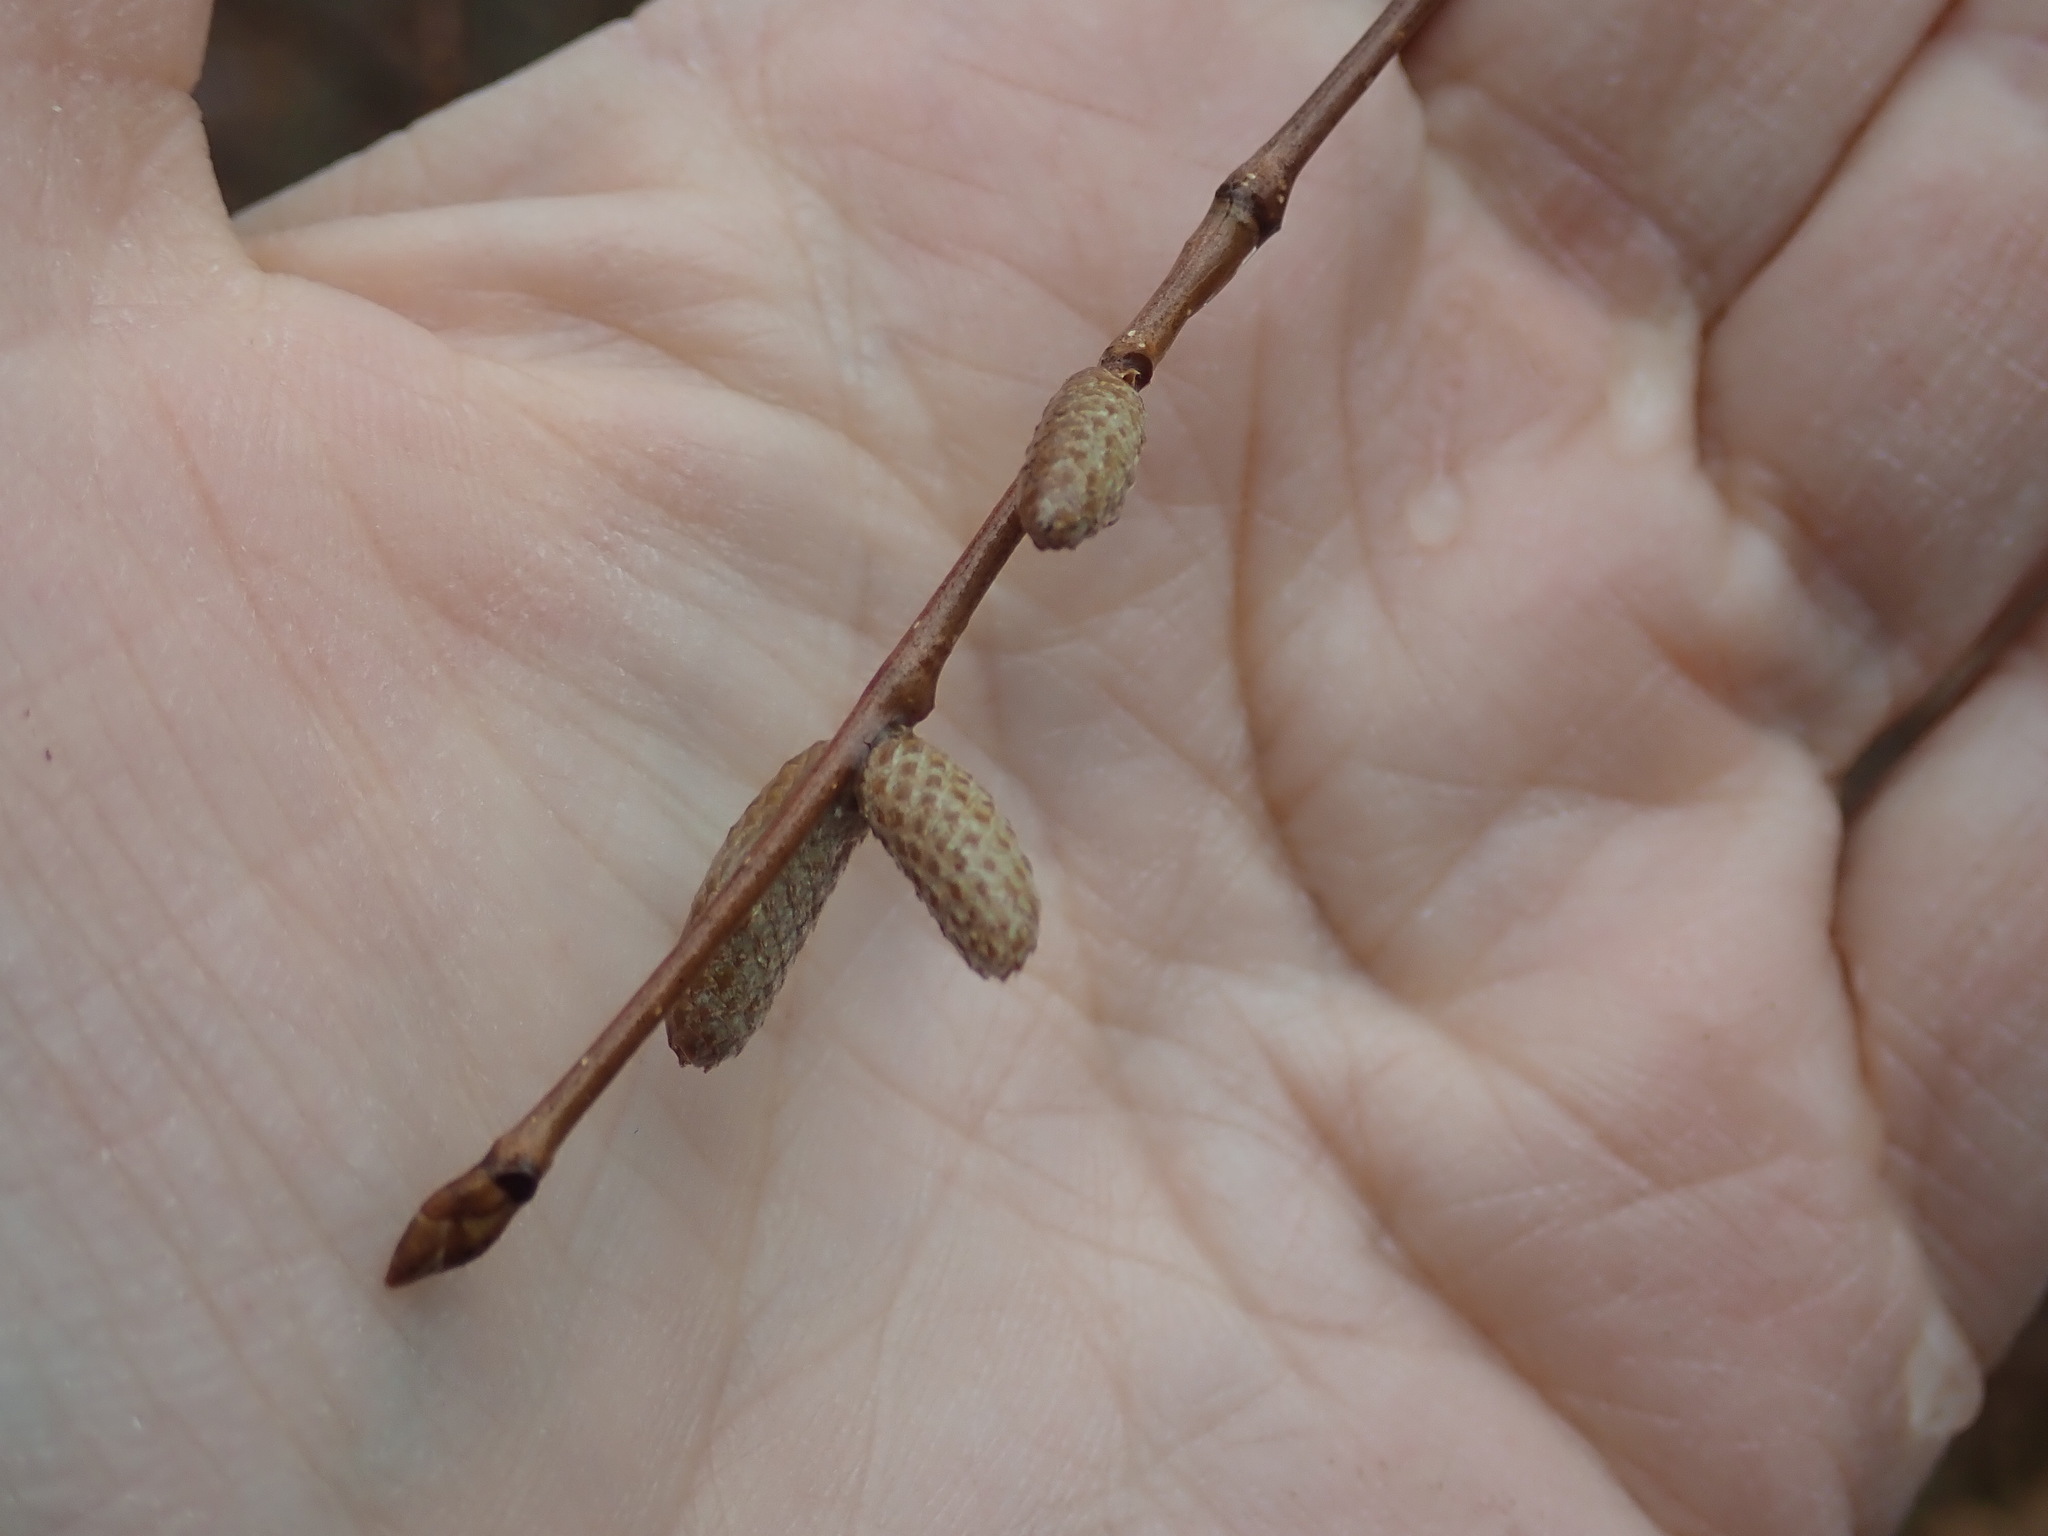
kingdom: Plantae
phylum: Tracheophyta
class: Magnoliopsida
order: Fagales
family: Betulaceae
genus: Corylus
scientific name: Corylus cornuta
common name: Beaked hazel
